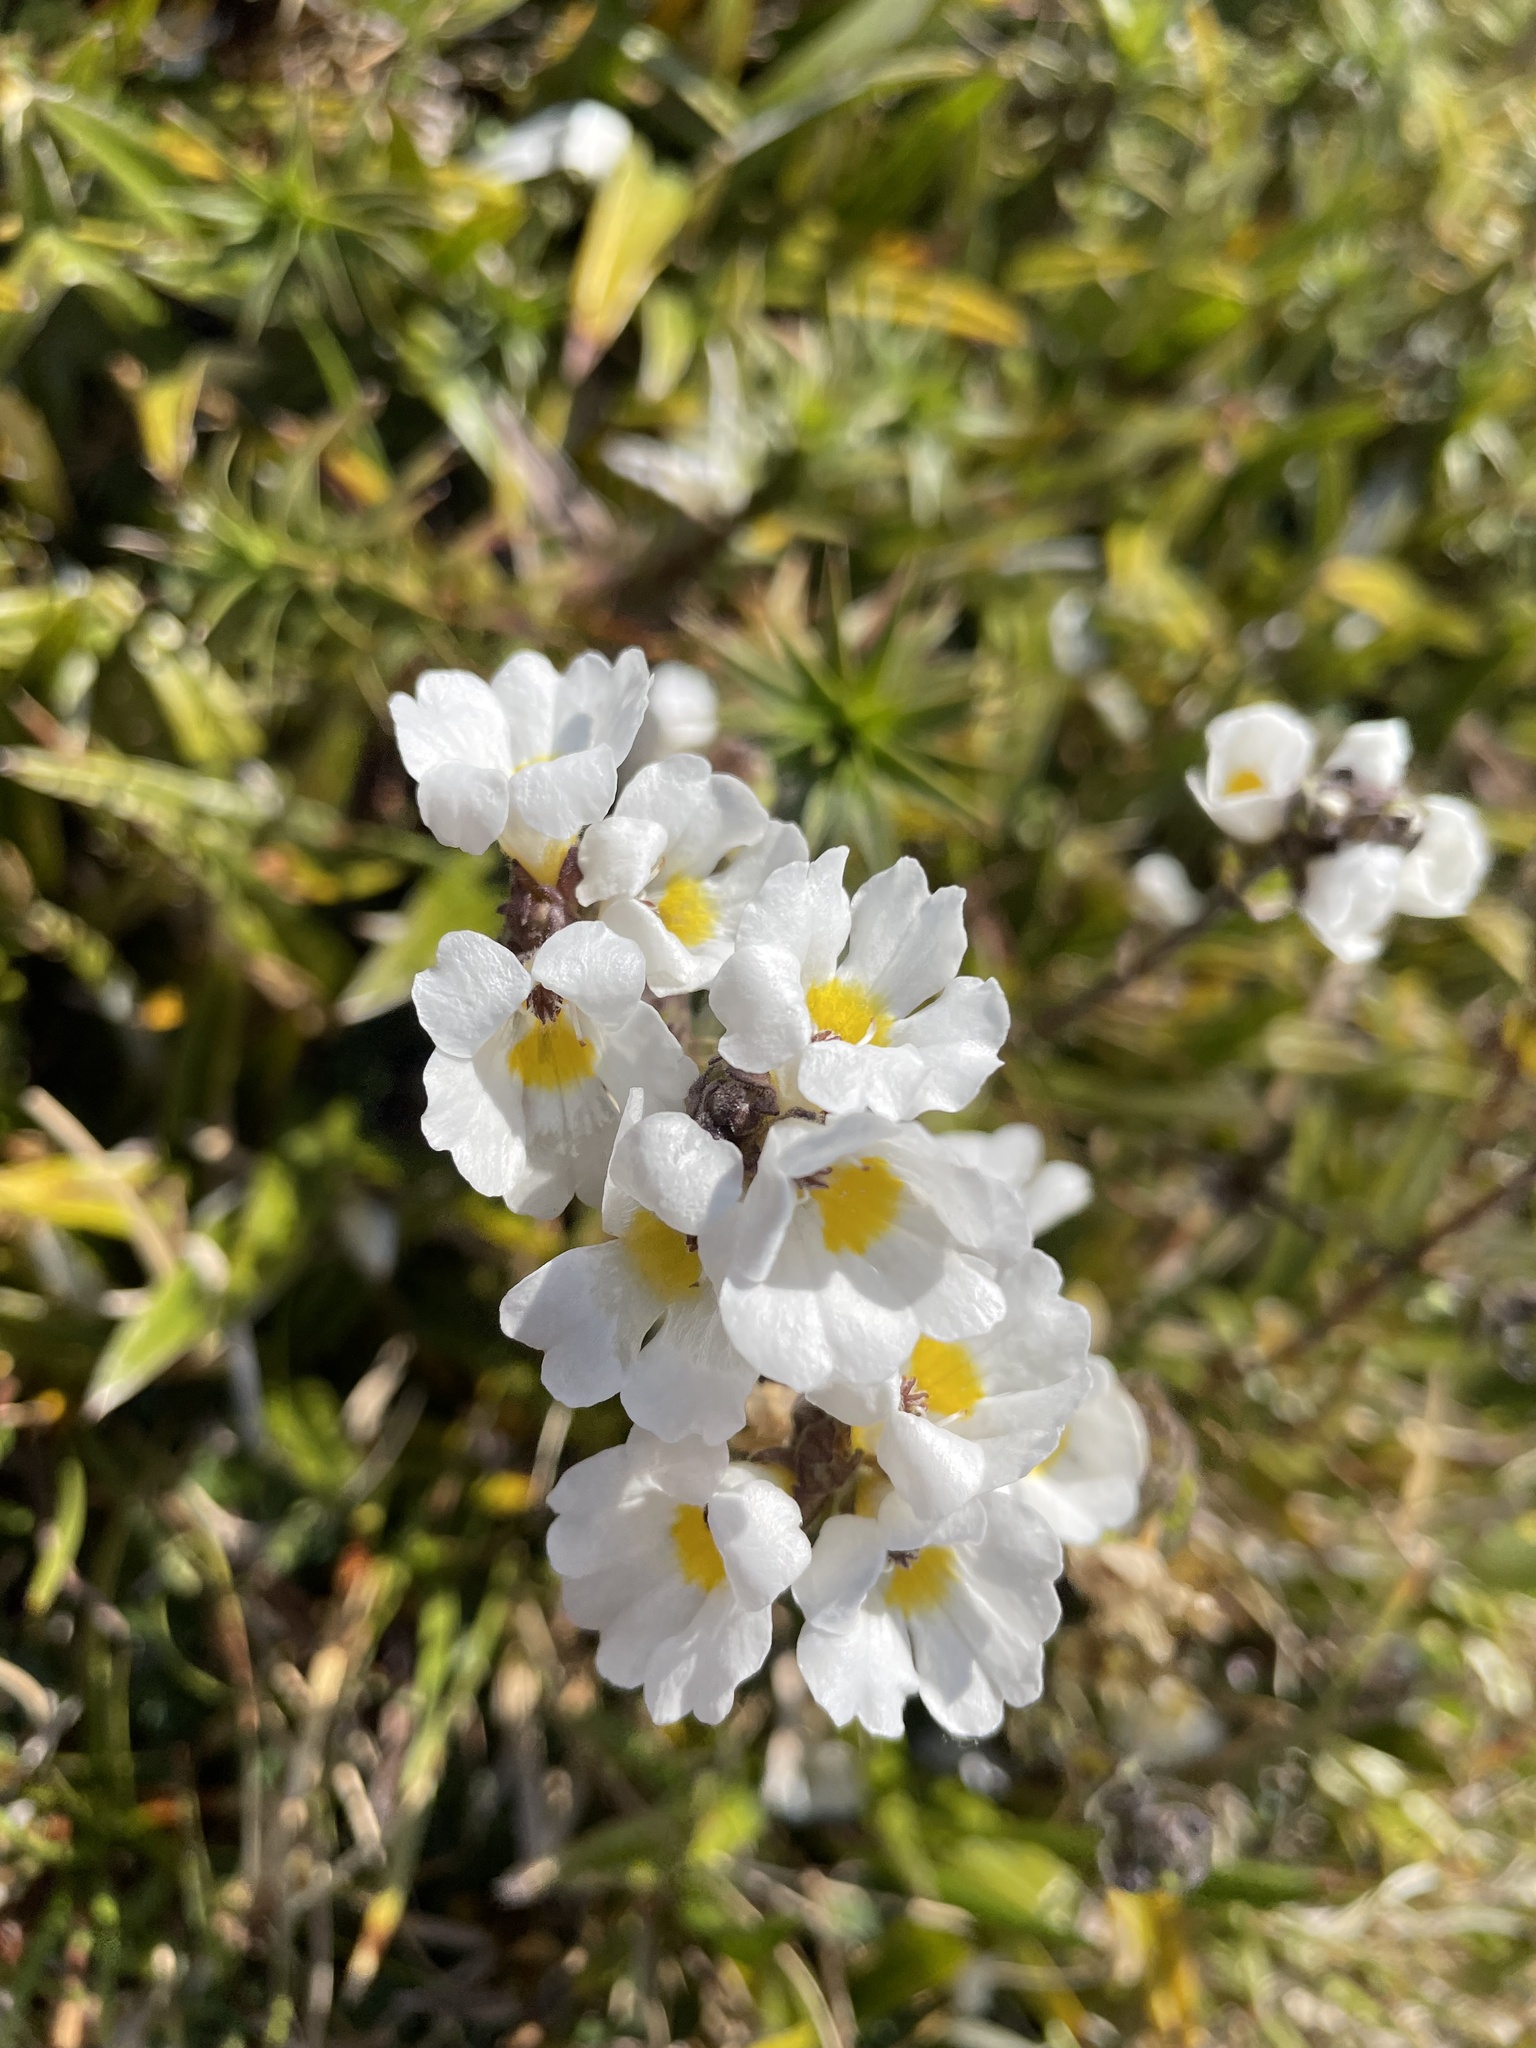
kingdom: Plantae
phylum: Tracheophyta
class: Magnoliopsida
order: Lamiales
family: Orobanchaceae
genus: Euphrasia
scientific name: Euphrasia collina
